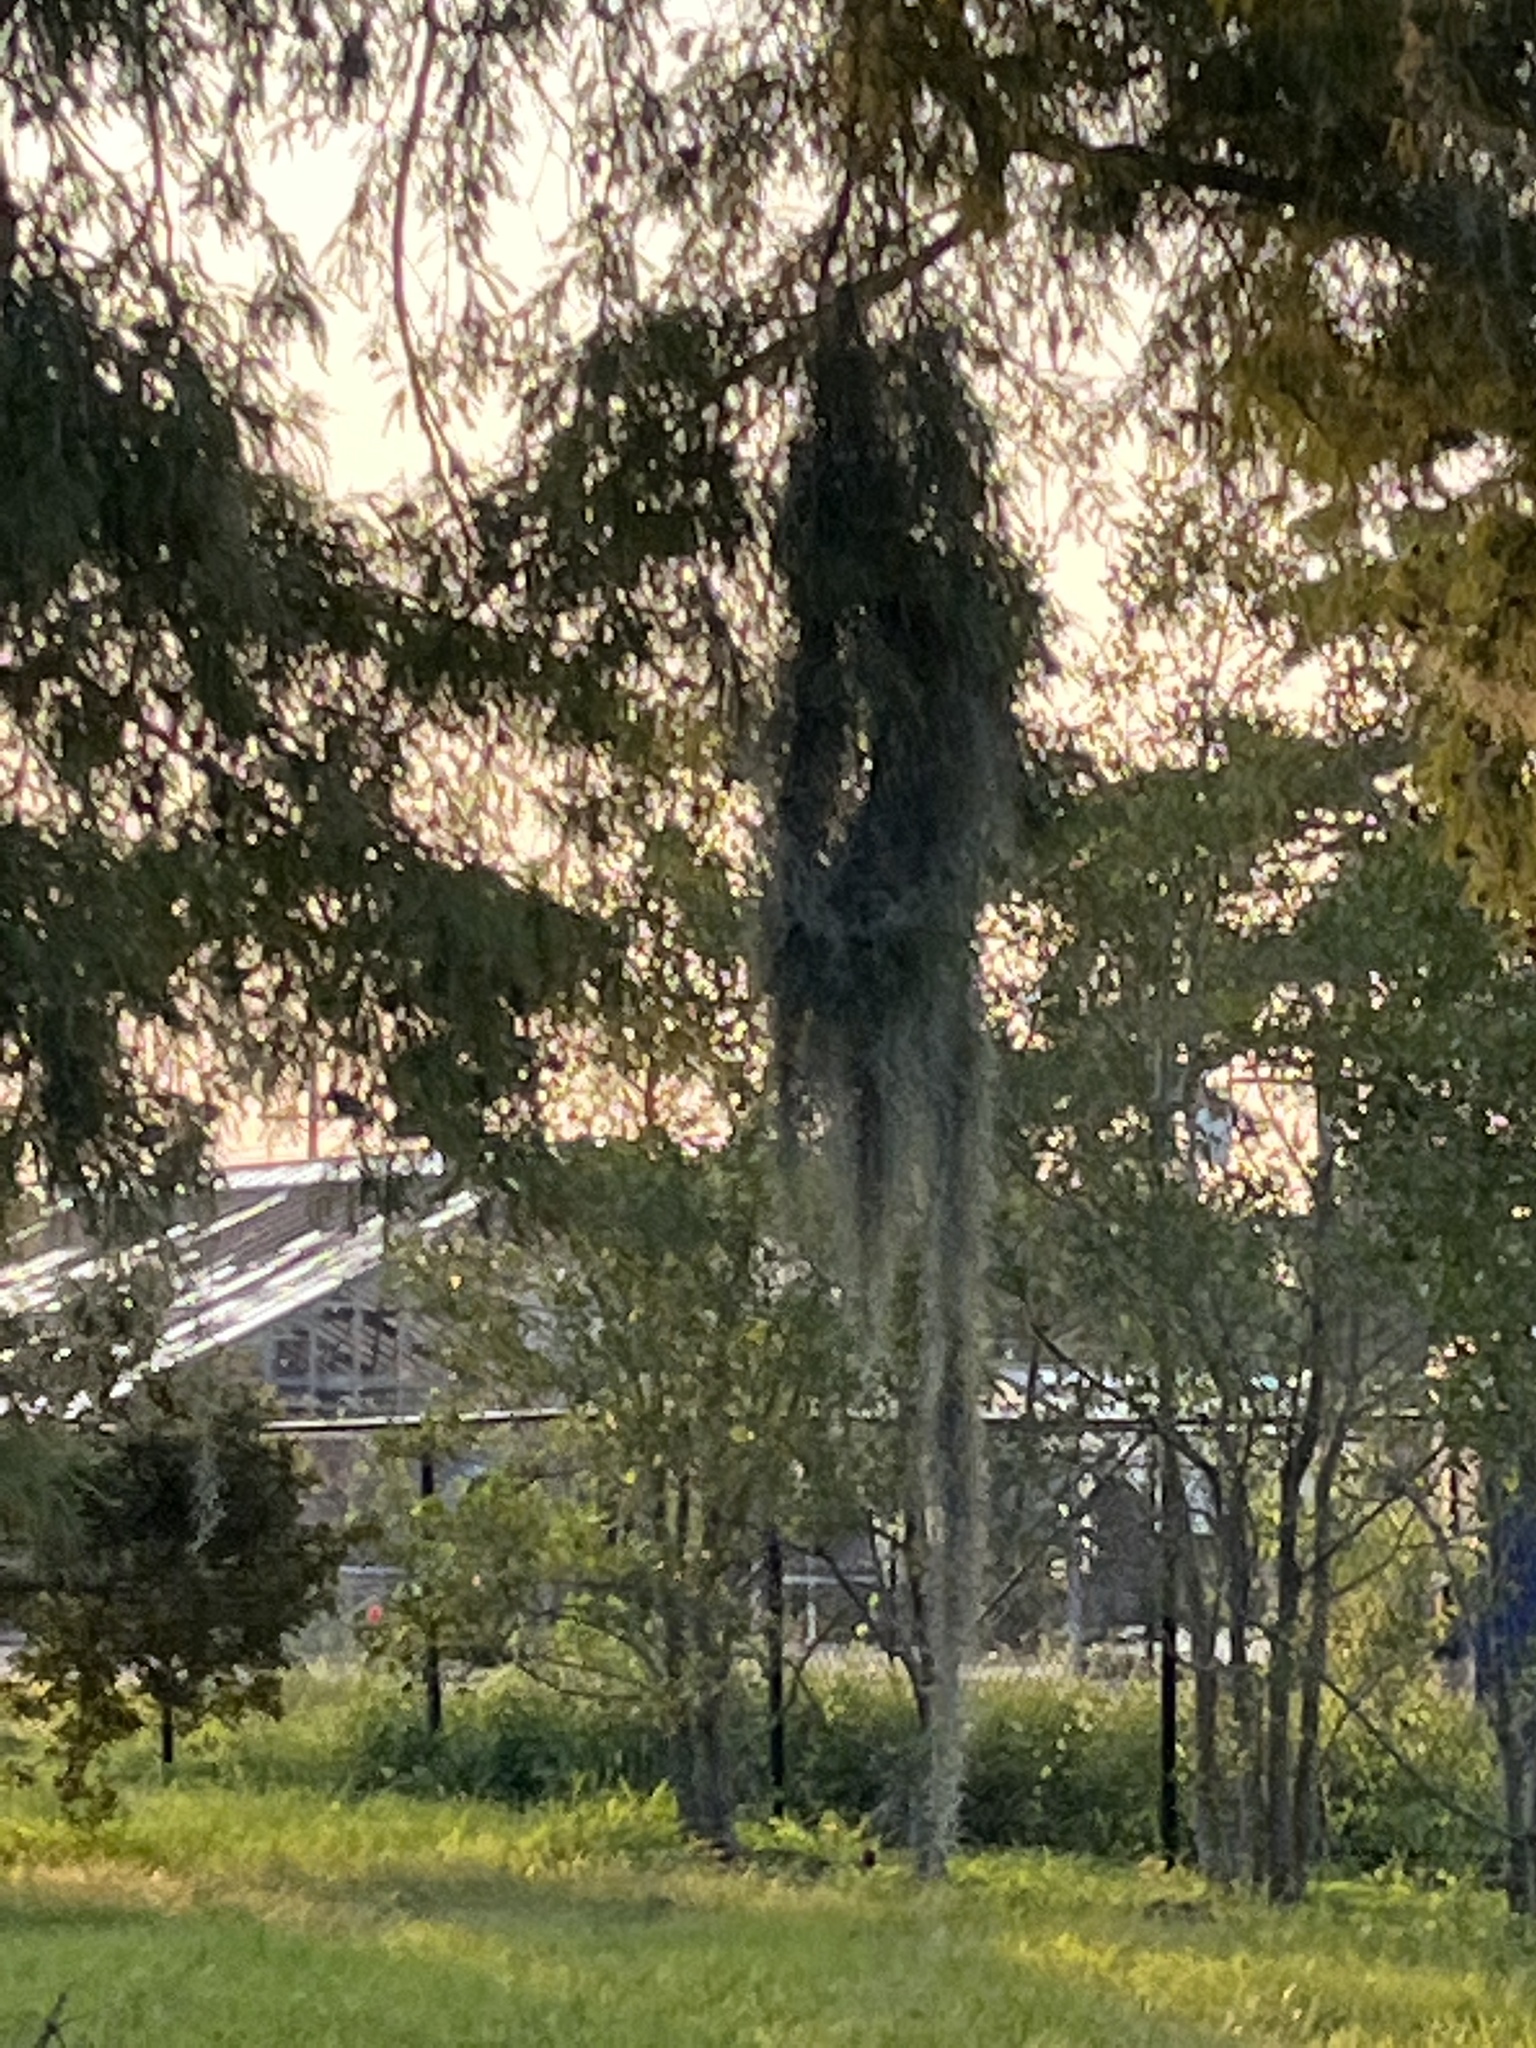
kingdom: Plantae
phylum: Tracheophyta
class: Liliopsida
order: Poales
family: Bromeliaceae
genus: Tillandsia
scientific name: Tillandsia usneoides
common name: Spanish moss
